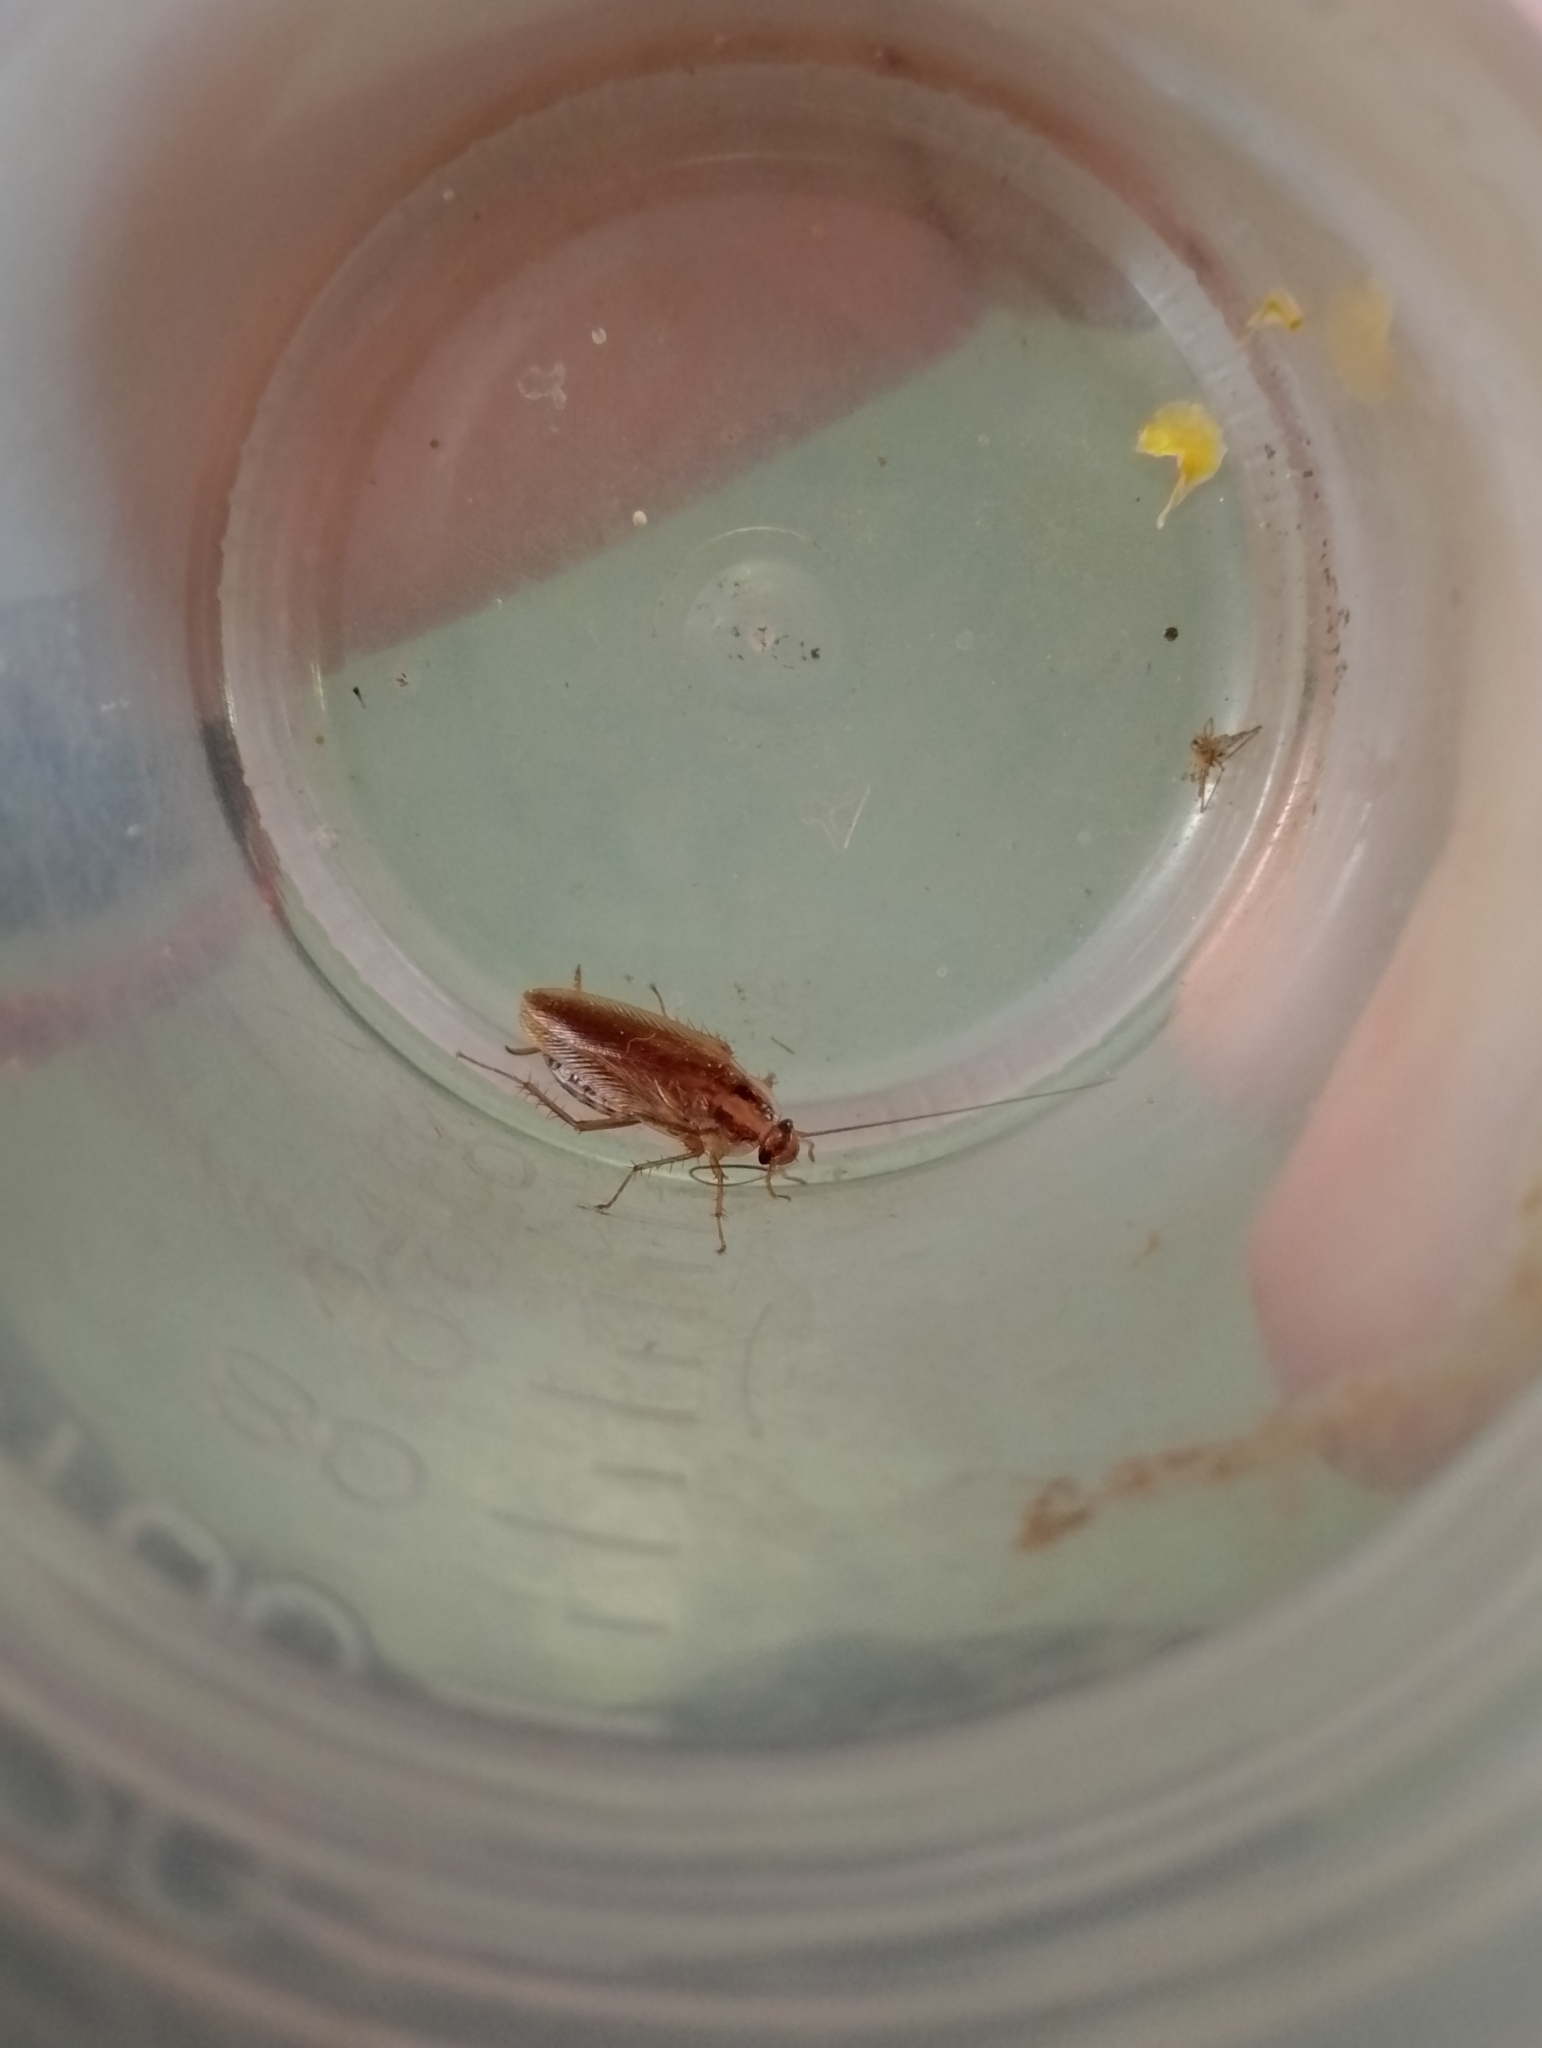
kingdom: Animalia
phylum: Arthropoda
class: Insecta
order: Blattodea
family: Ectobiidae
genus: Blattella
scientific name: Blattella germanica
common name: German cockroach
